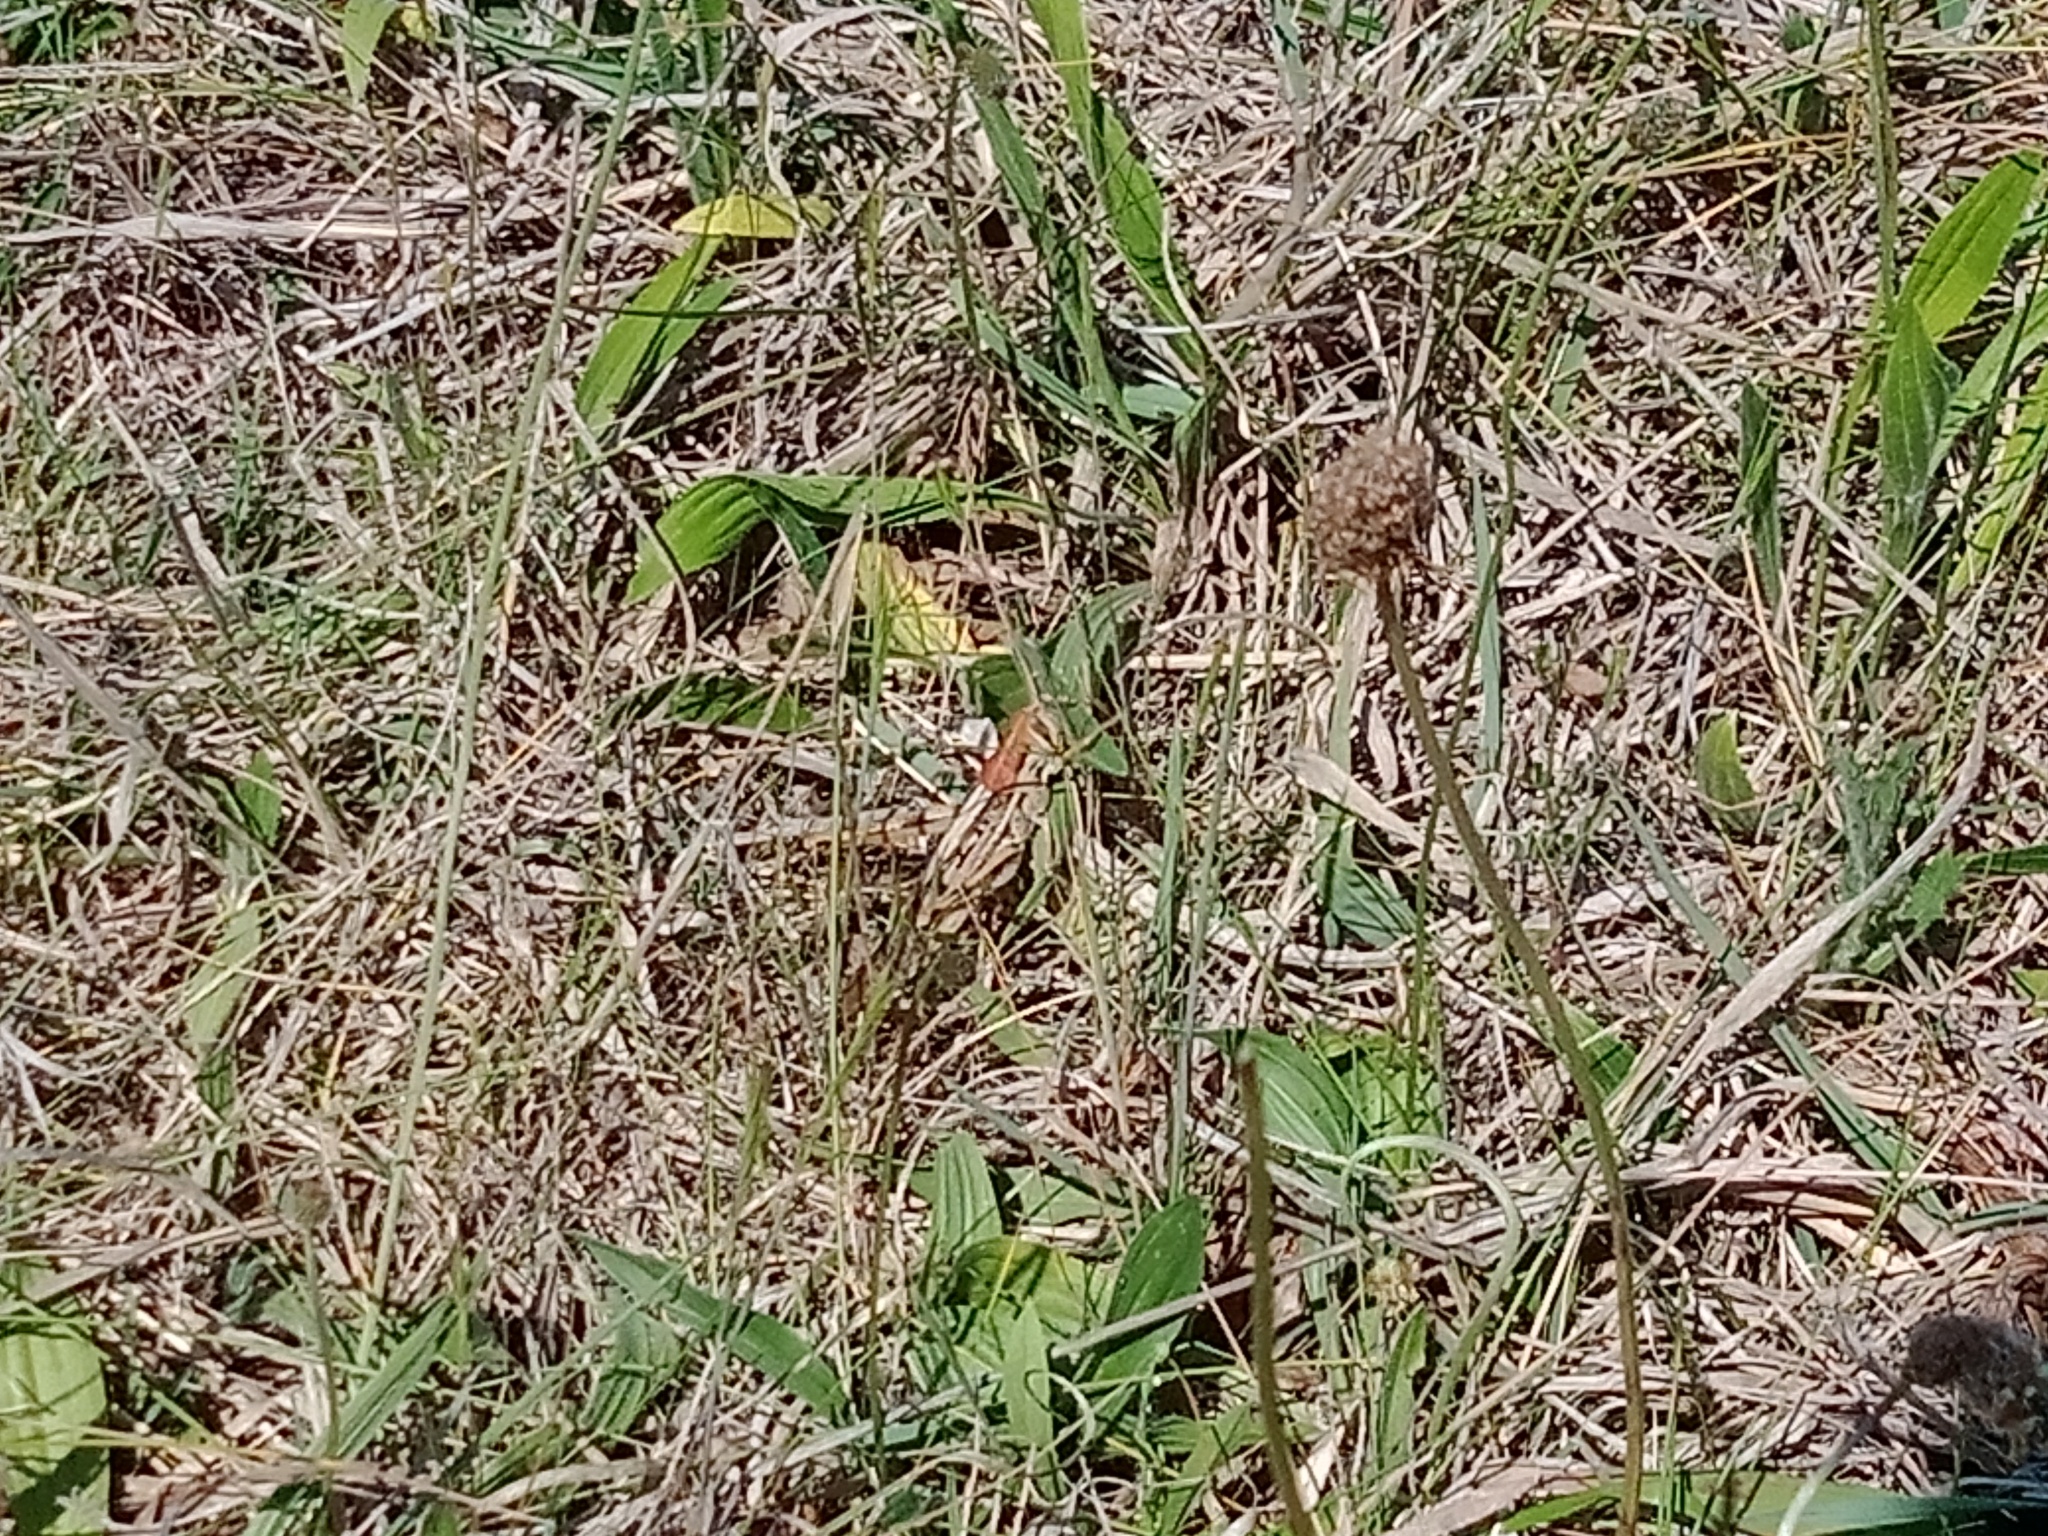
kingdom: Animalia
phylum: Arthropoda
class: Insecta
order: Orthoptera
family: Acrididae
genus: Austracris
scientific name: Austracris proxima
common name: Confusing spur-throated locust
